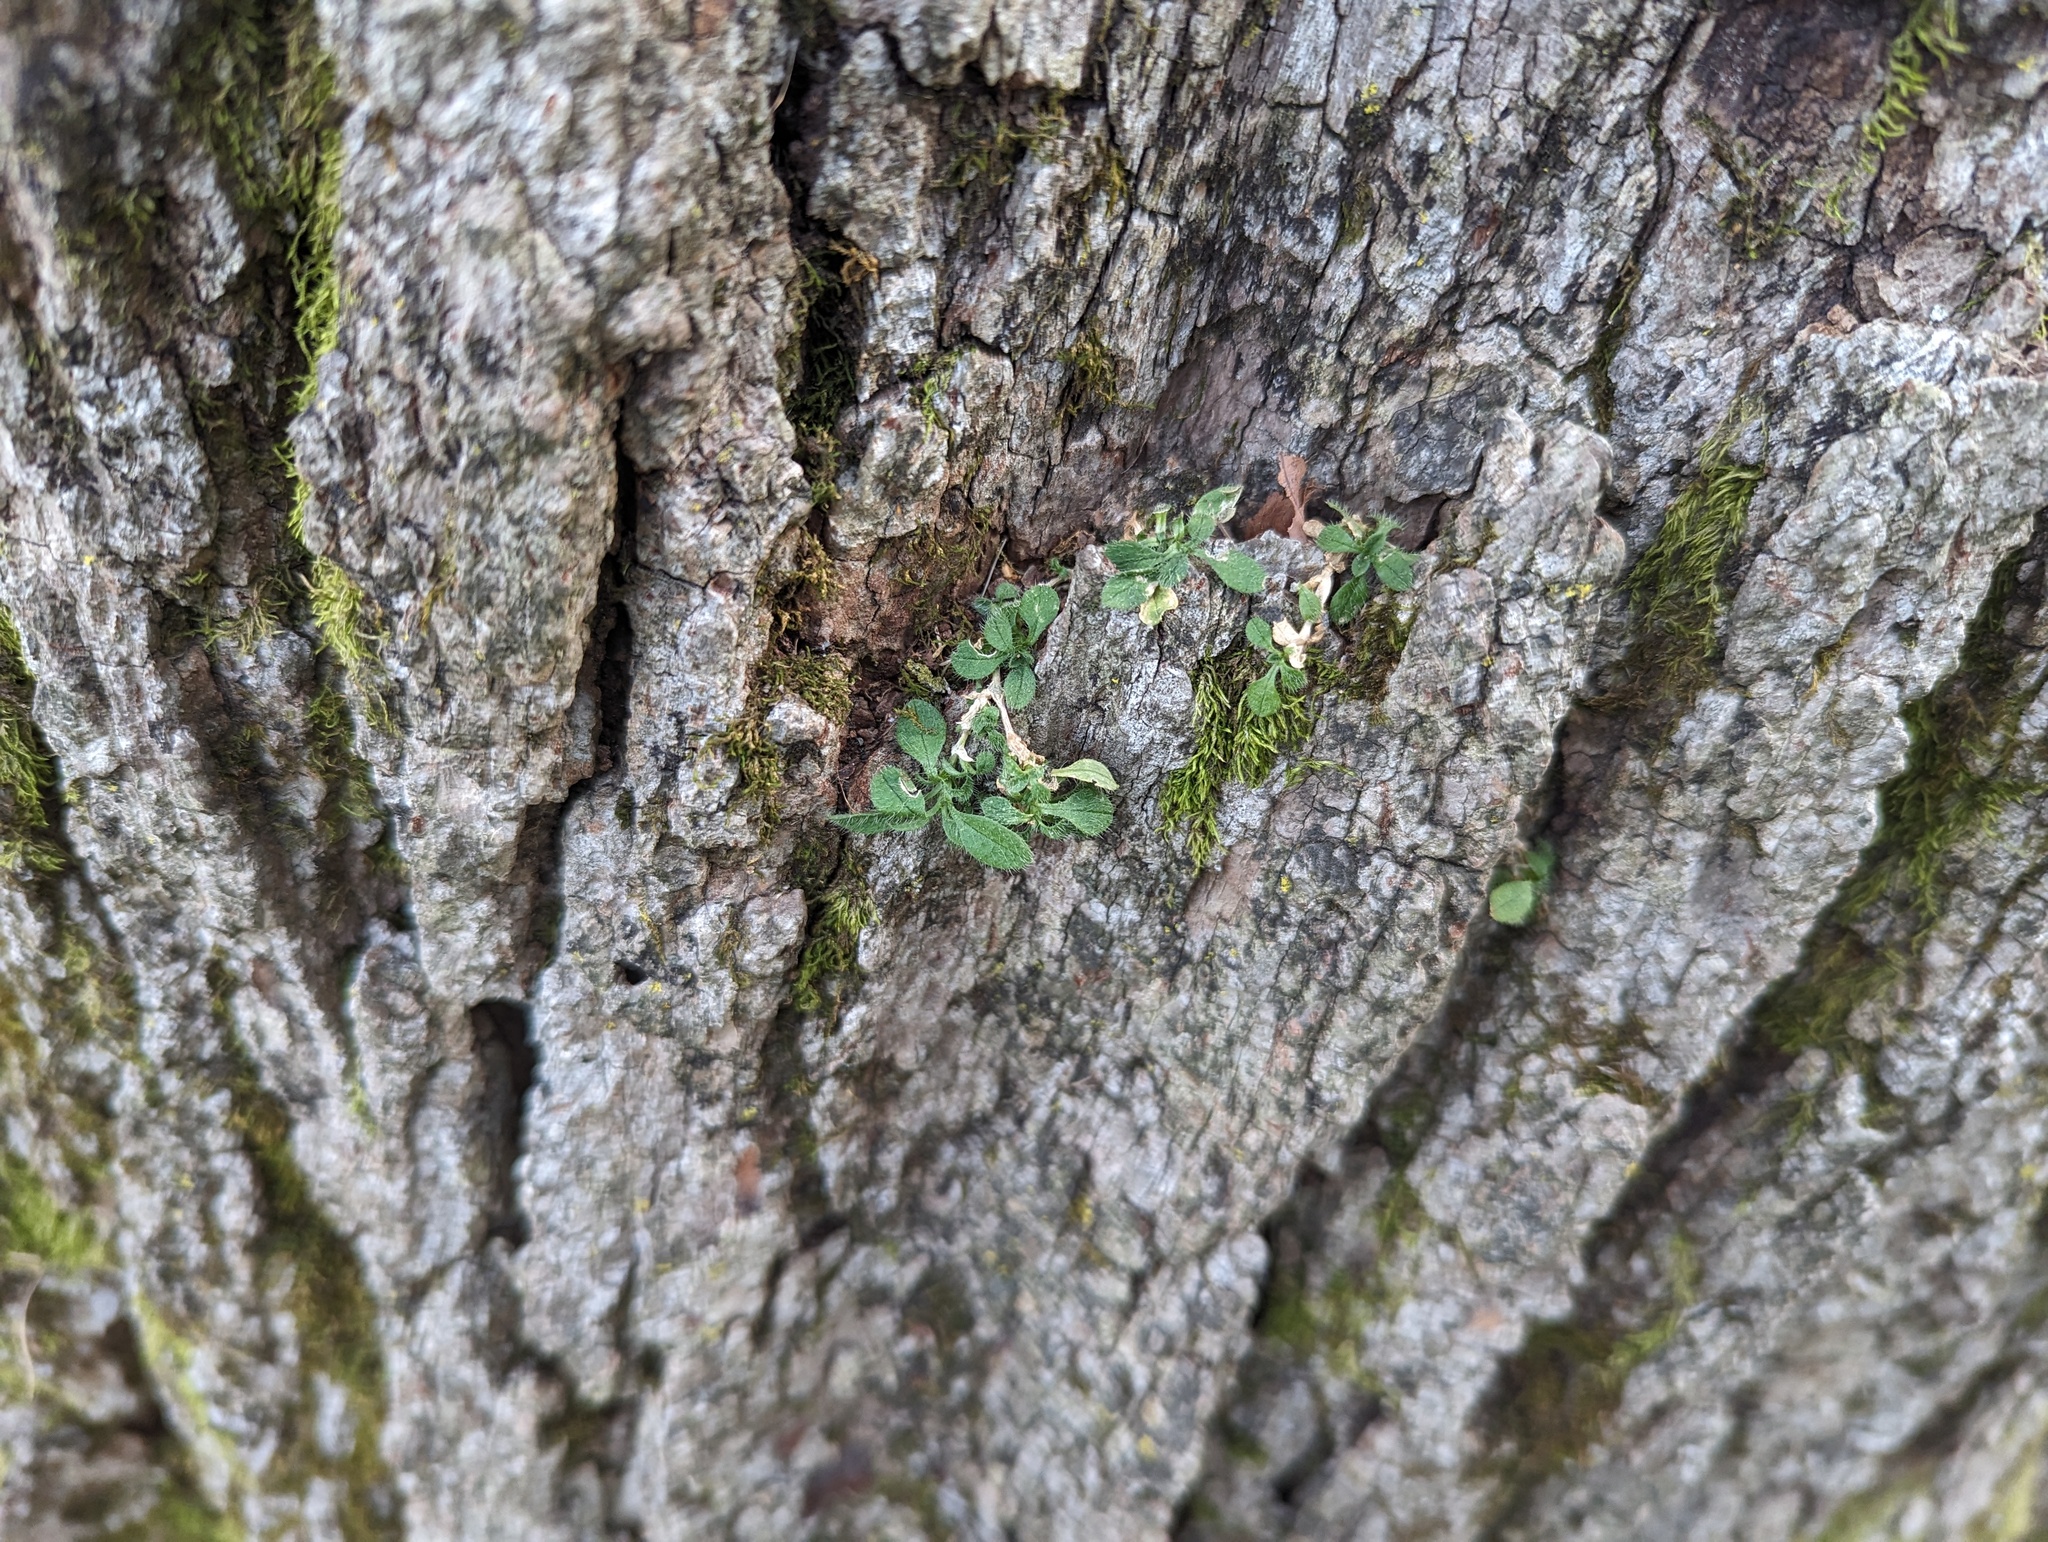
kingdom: Plantae
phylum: Tracheophyta
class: Magnoliopsida
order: Caryophyllales
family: Caryophyllaceae
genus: Cerastium
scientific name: Cerastium fontanum
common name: Common mouse-ear
